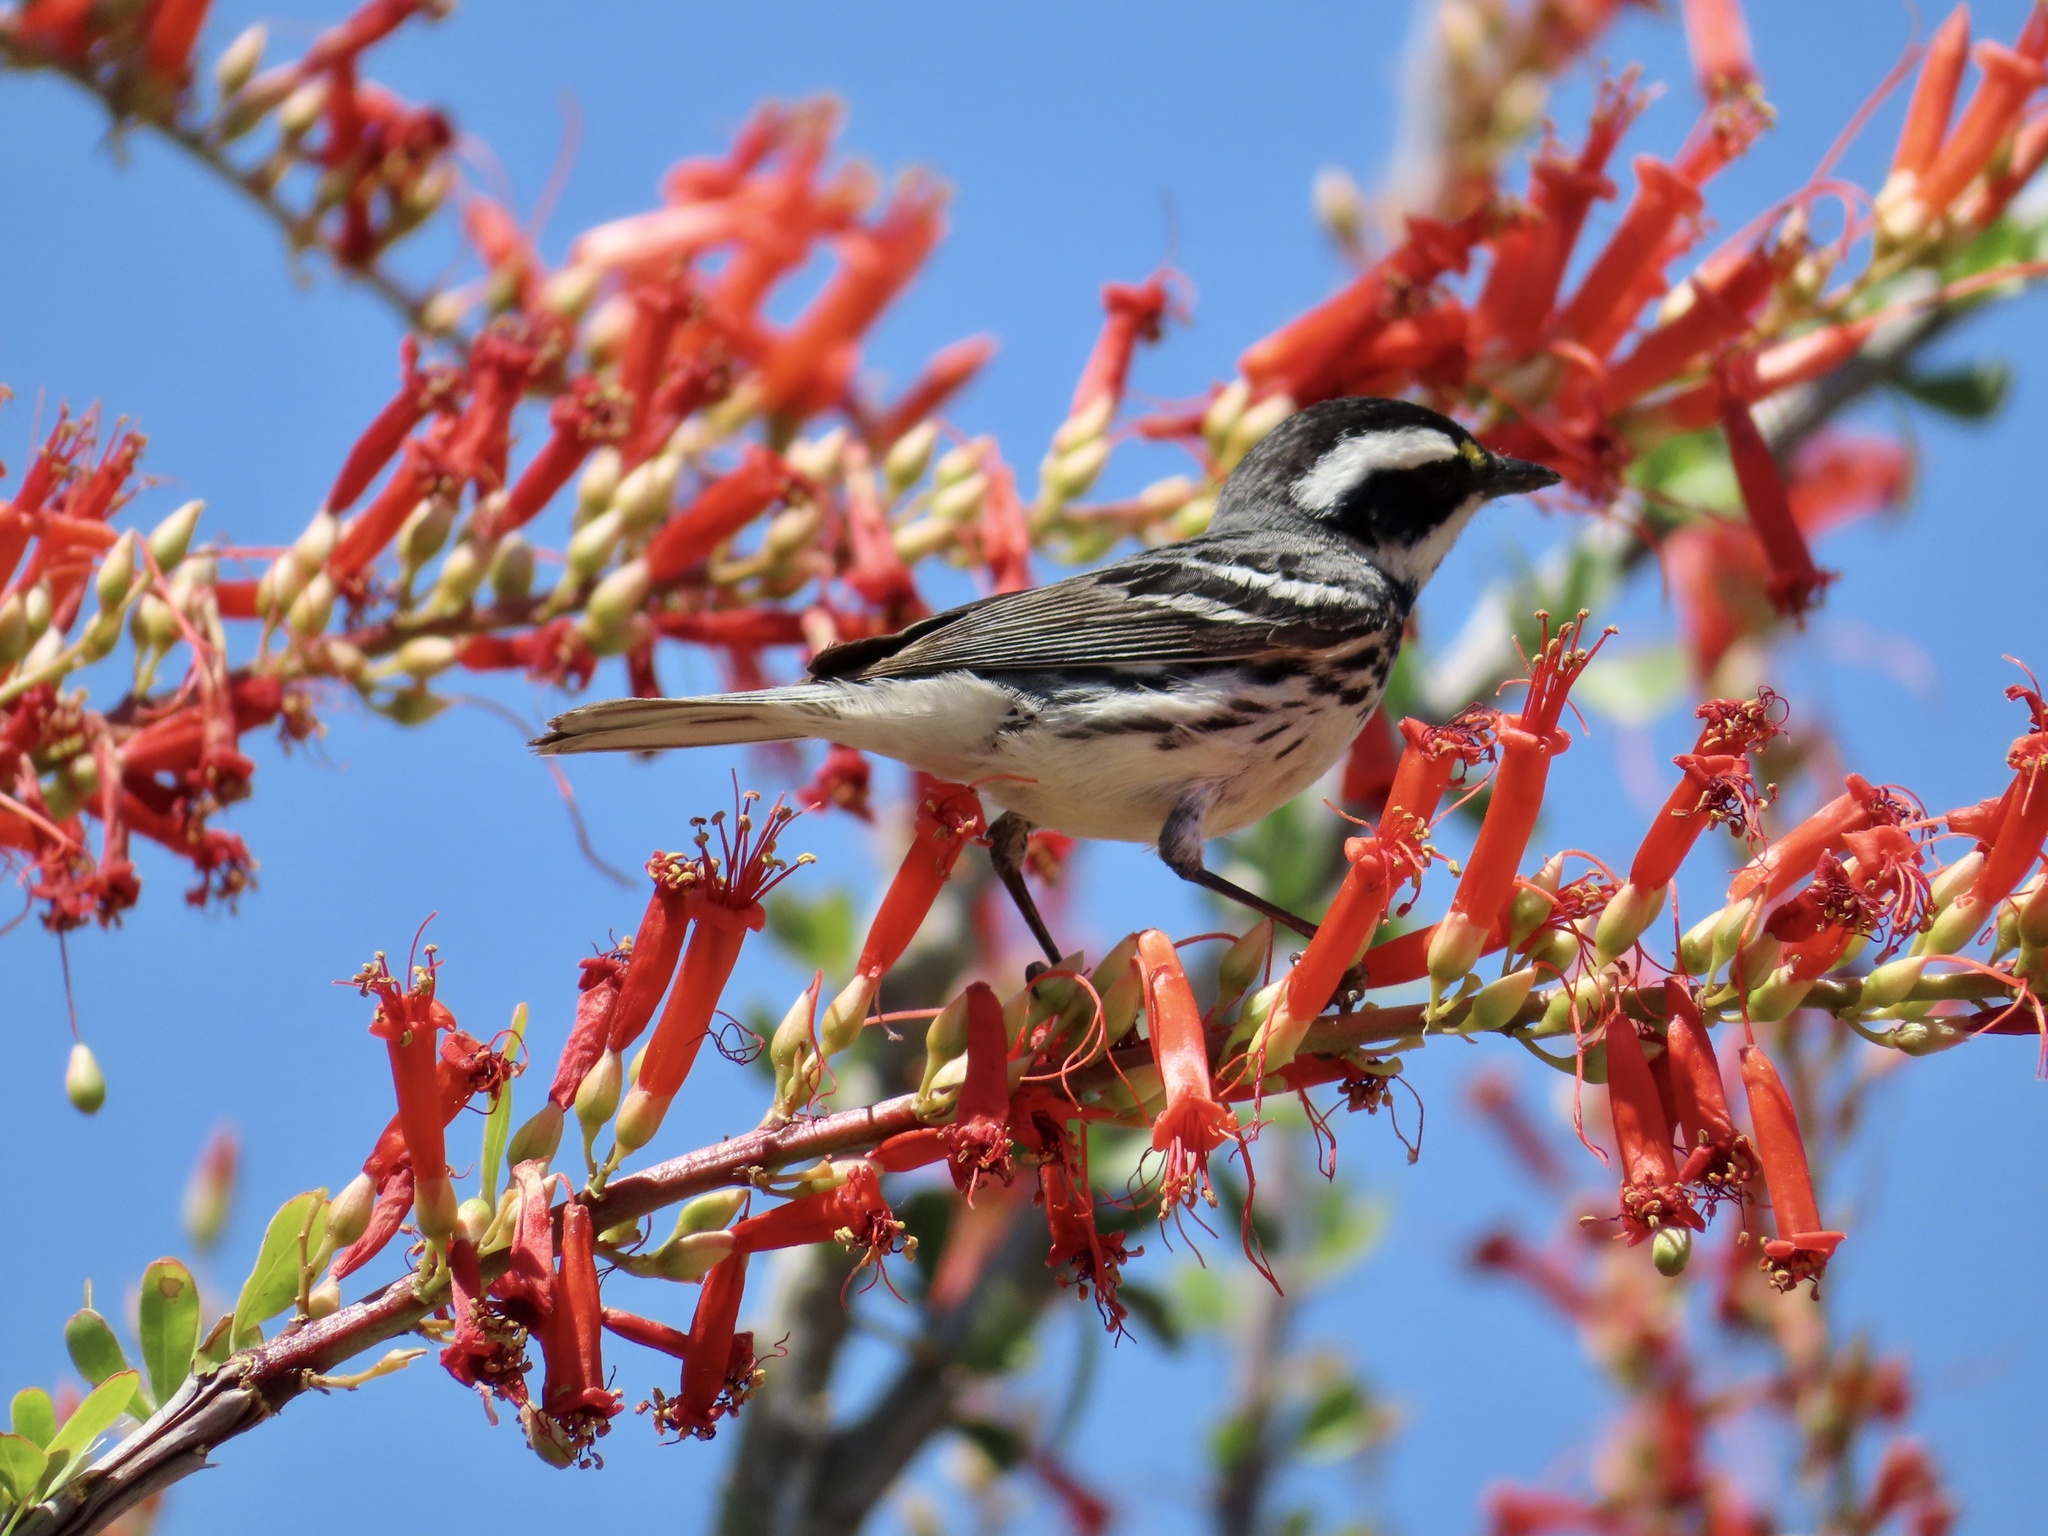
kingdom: Animalia
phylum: Chordata
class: Aves
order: Passeriformes
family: Parulidae
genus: Setophaga
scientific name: Setophaga nigrescens
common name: Black-throated gray warbler
